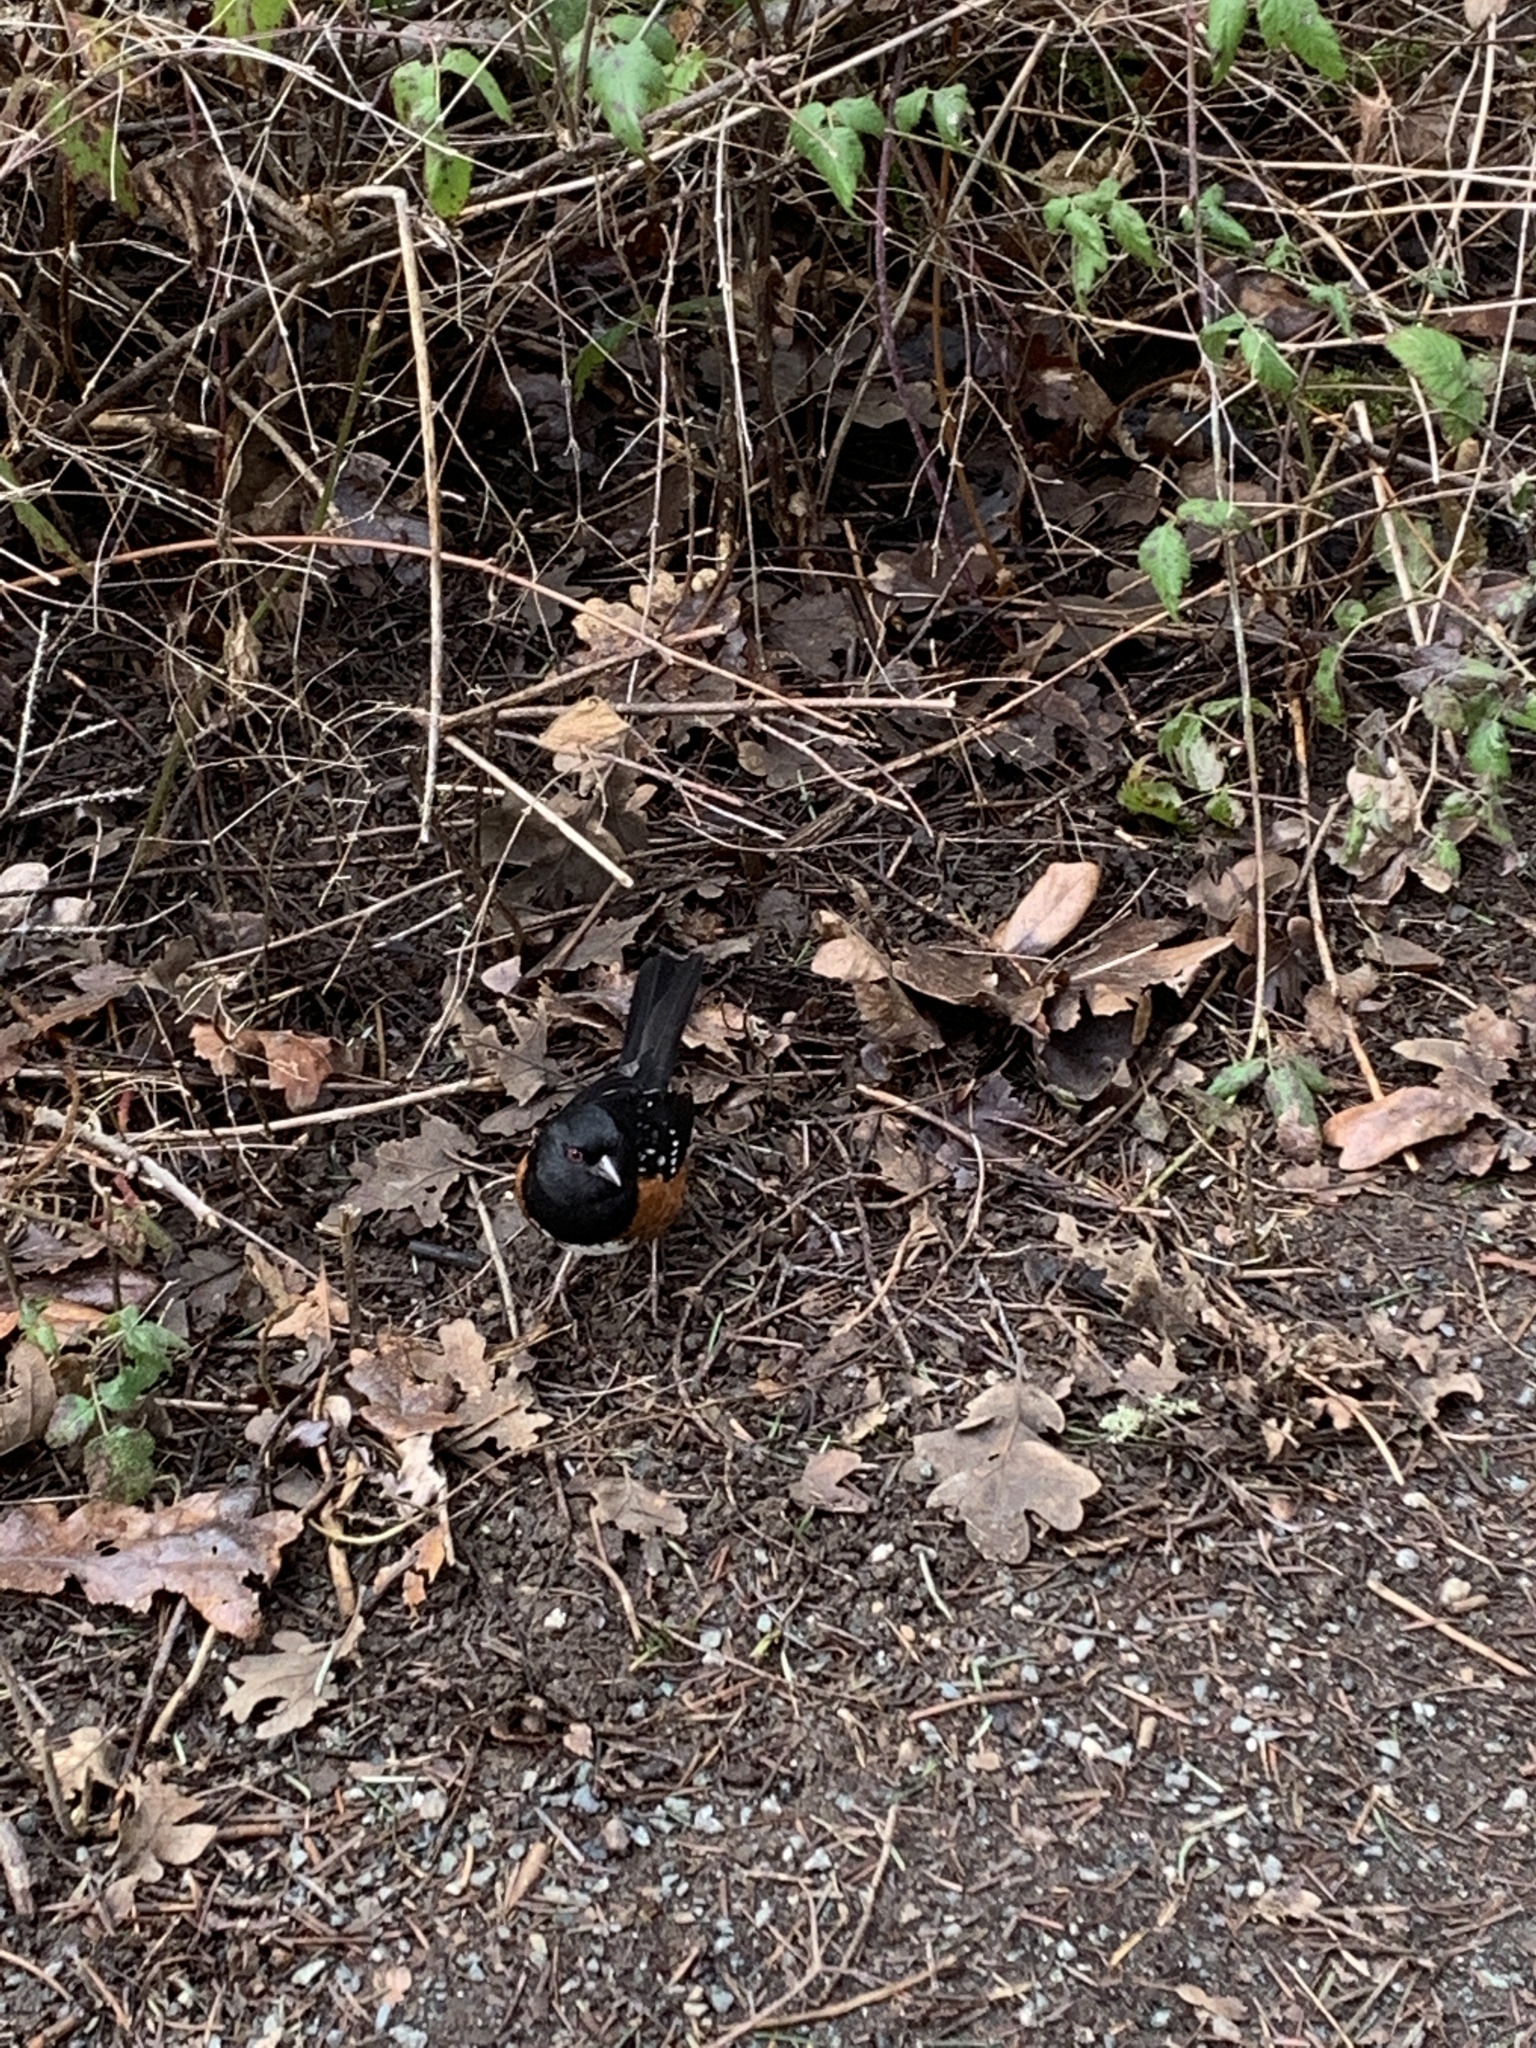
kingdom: Animalia
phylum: Chordata
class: Aves
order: Passeriformes
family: Passerellidae
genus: Pipilo
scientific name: Pipilo maculatus
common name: Spotted towhee
